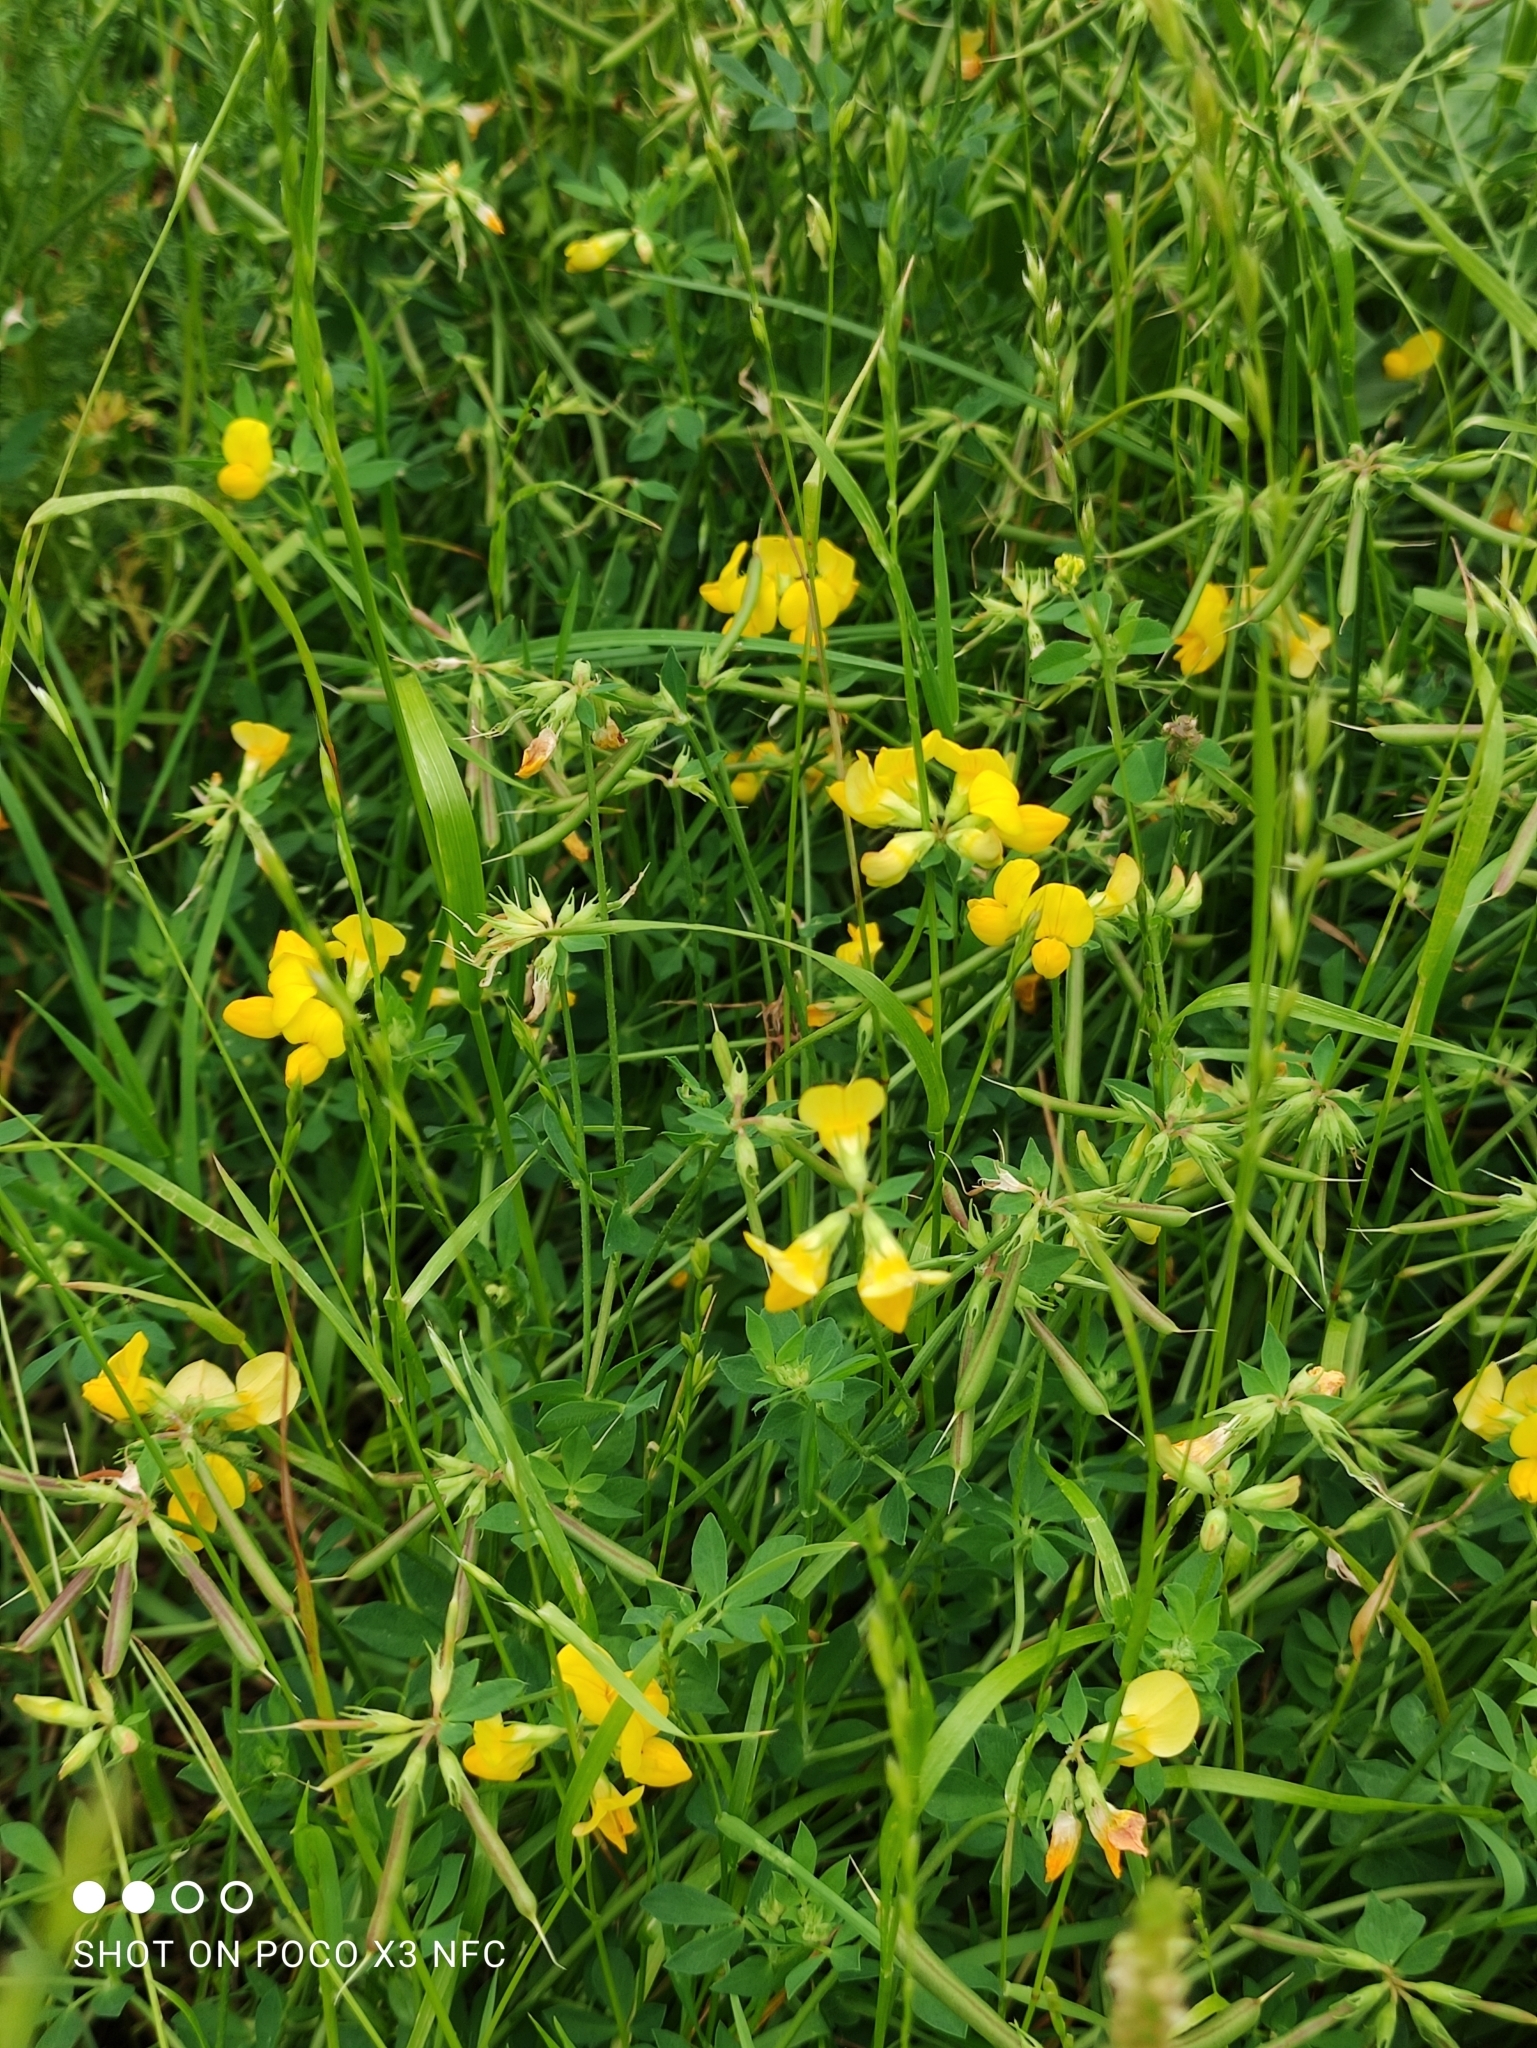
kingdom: Plantae
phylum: Tracheophyta
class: Magnoliopsida
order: Fabales
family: Fabaceae
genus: Lotus
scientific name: Lotus corniculatus
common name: Common bird's-foot-trefoil
